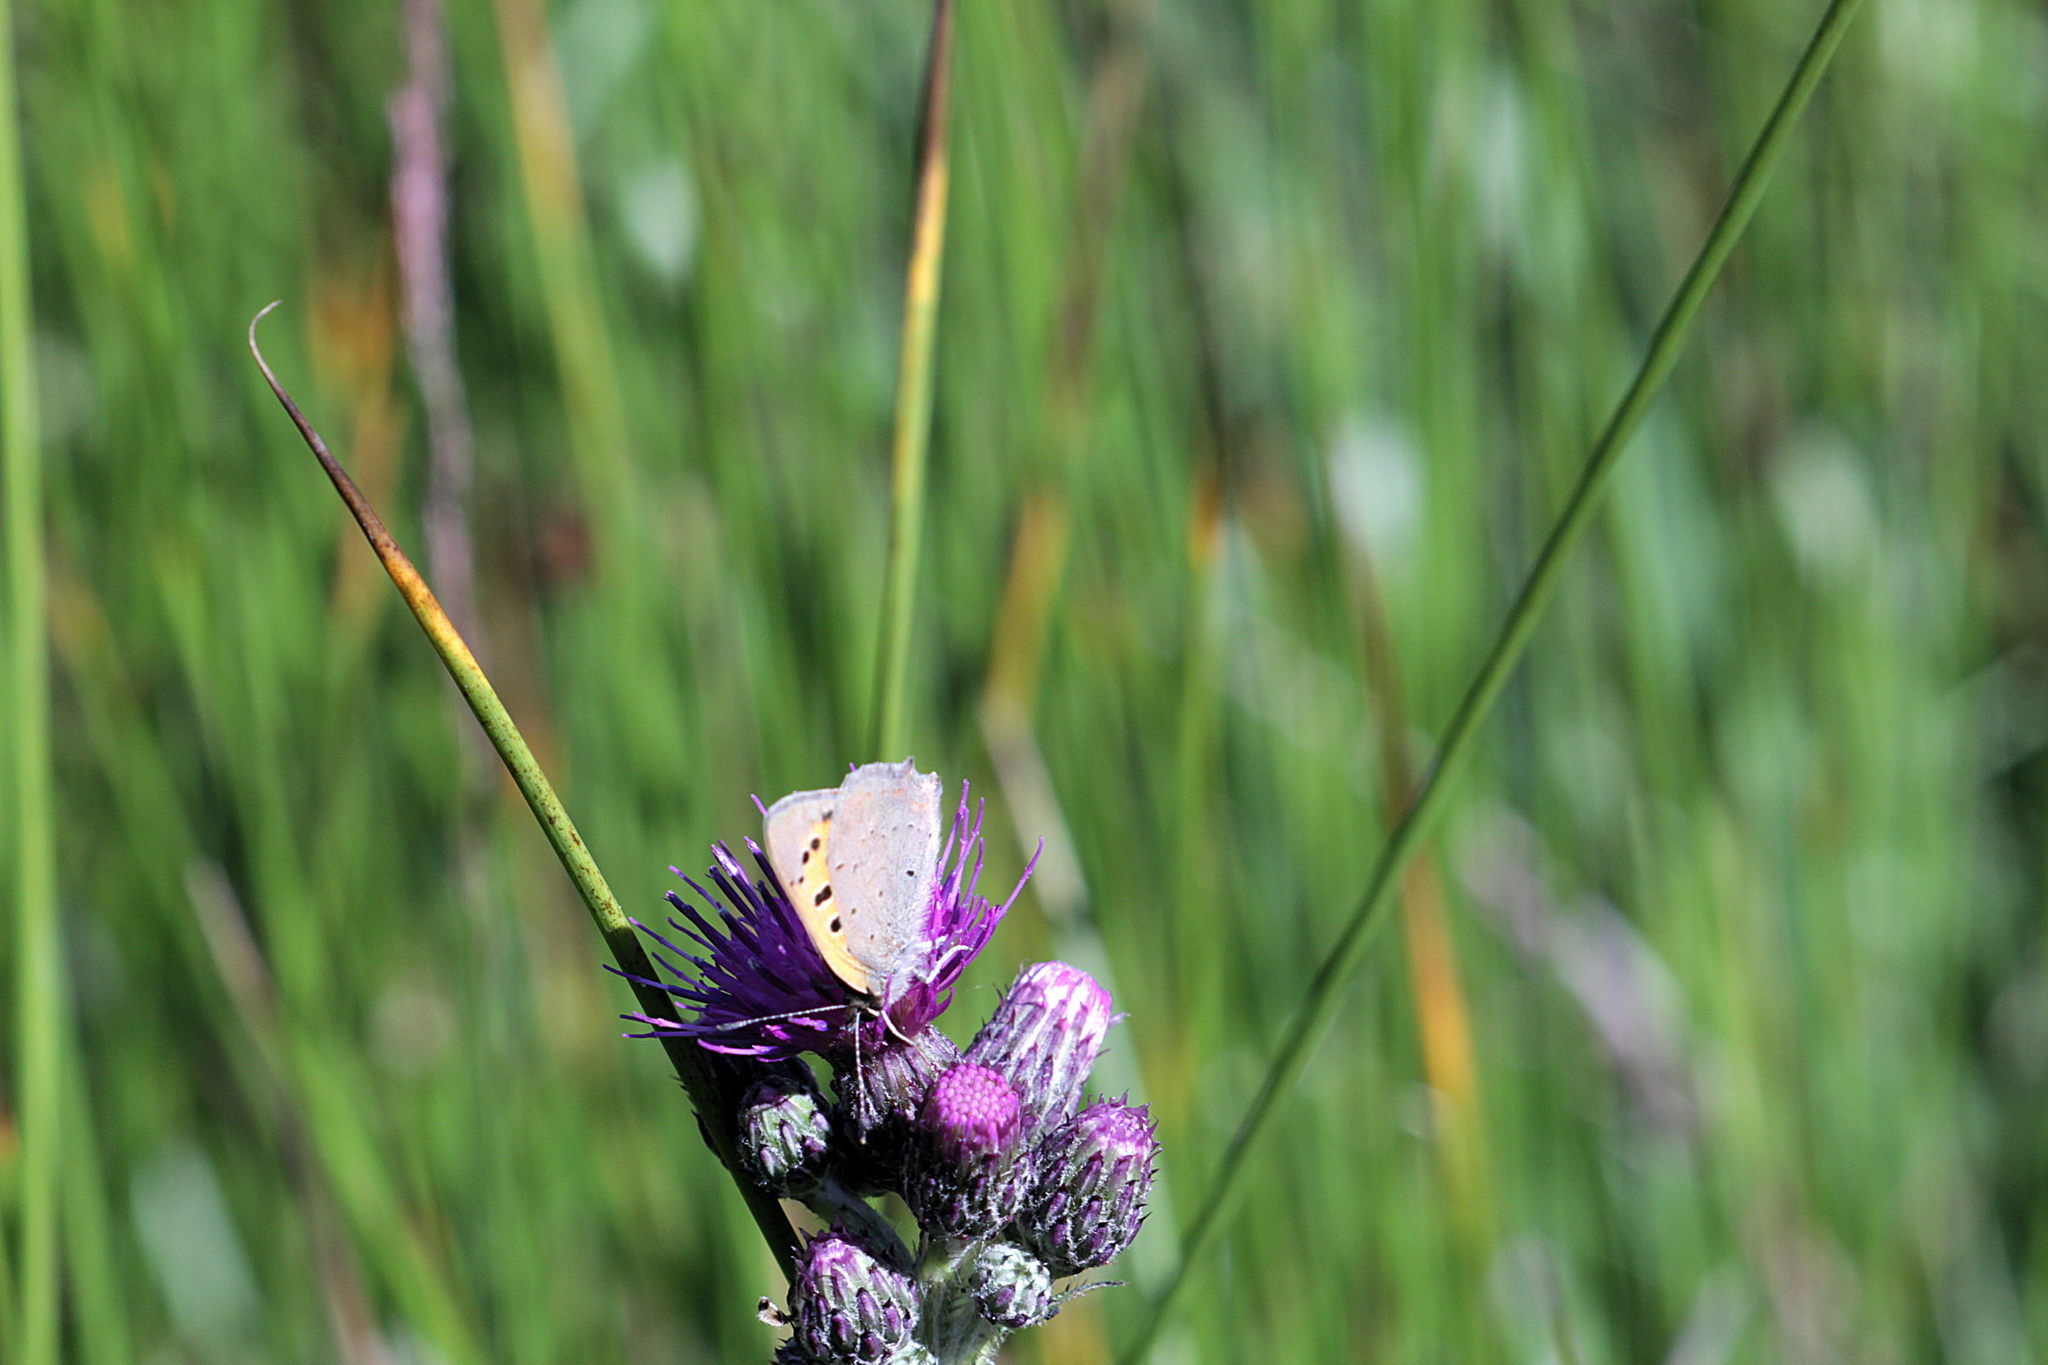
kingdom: Animalia
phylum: Arthropoda
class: Insecta
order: Lepidoptera
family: Lycaenidae
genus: Lycaena
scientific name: Lycaena phlaeas
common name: Small copper
